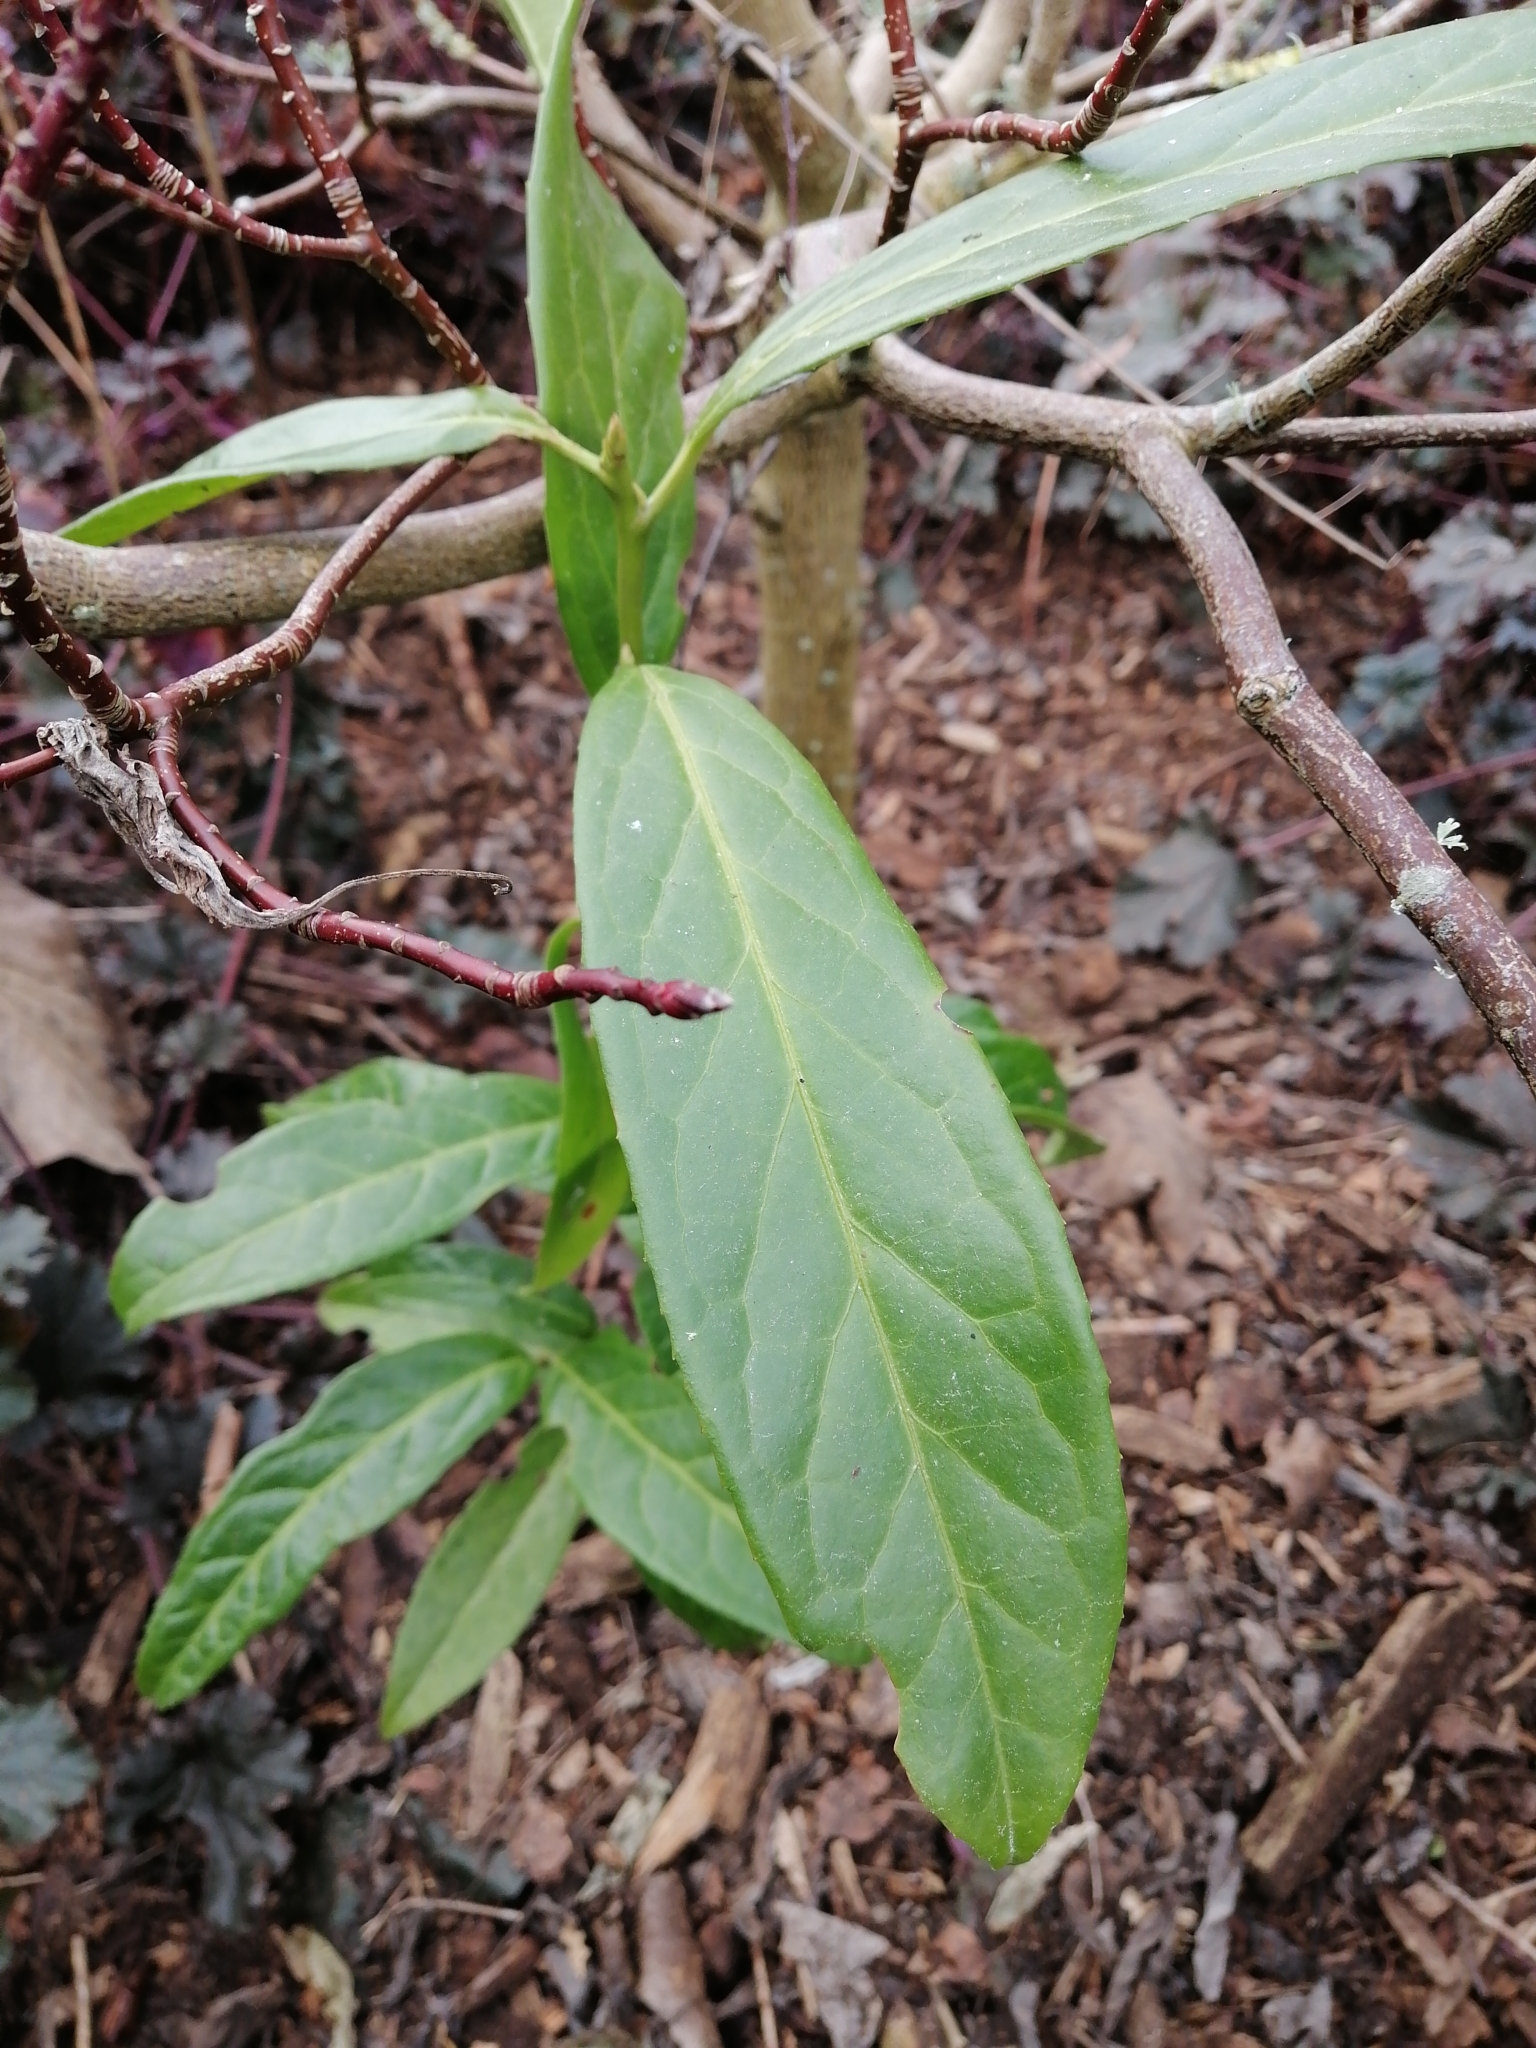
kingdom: Plantae
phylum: Tracheophyta
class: Magnoliopsida
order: Rosales
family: Rosaceae
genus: Prunus
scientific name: Prunus laurocerasus
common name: Cherry laurel
